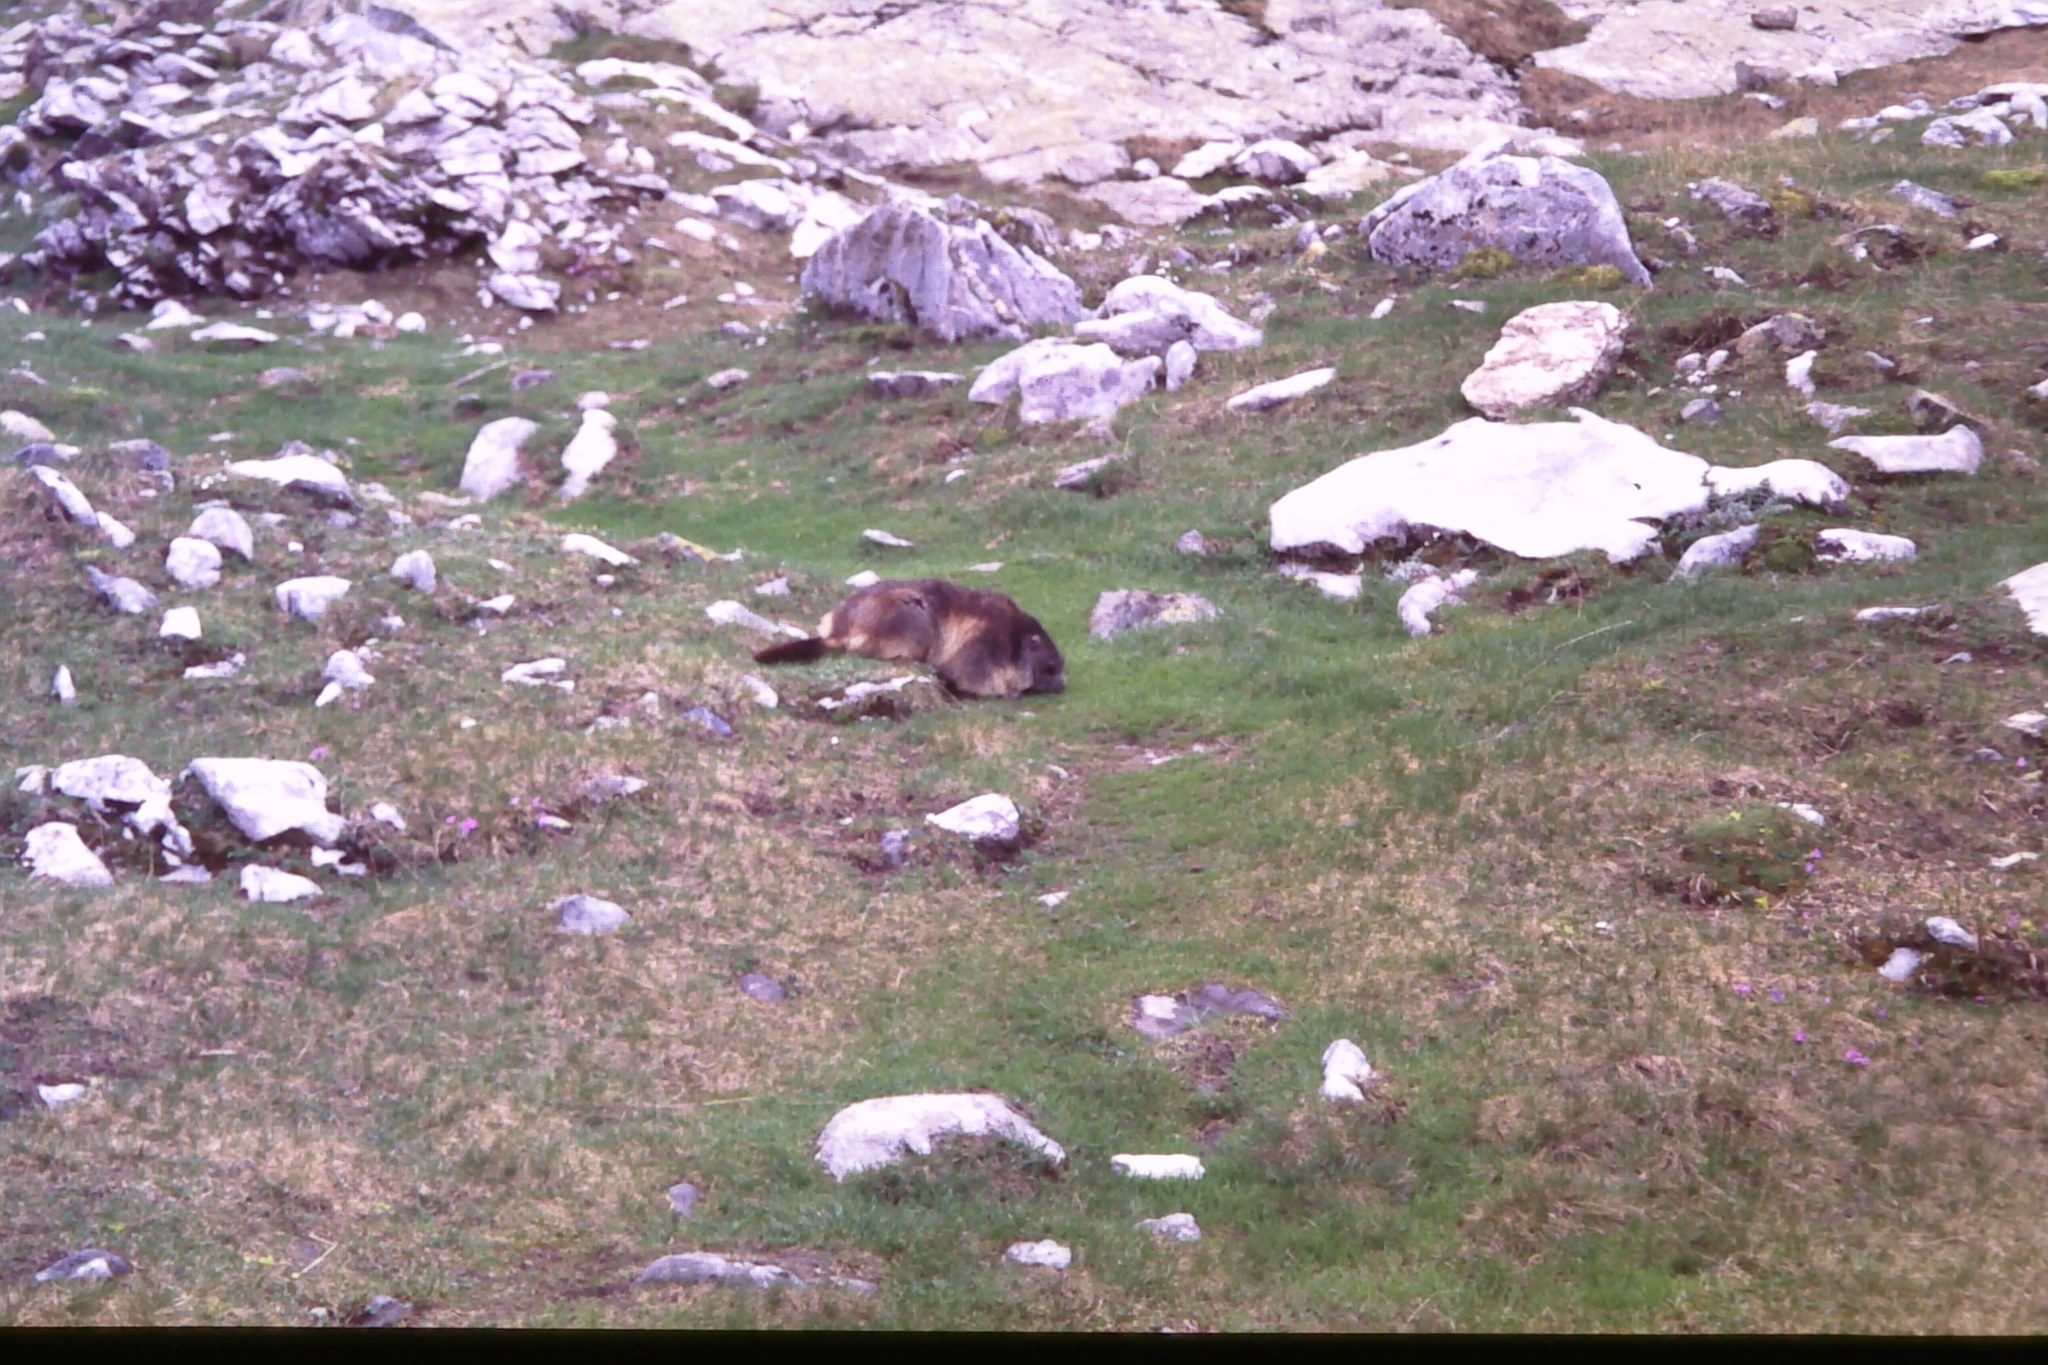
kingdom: Animalia
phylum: Chordata
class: Mammalia
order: Rodentia
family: Sciuridae
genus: Marmota
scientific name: Marmota marmota
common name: Alpine marmot
